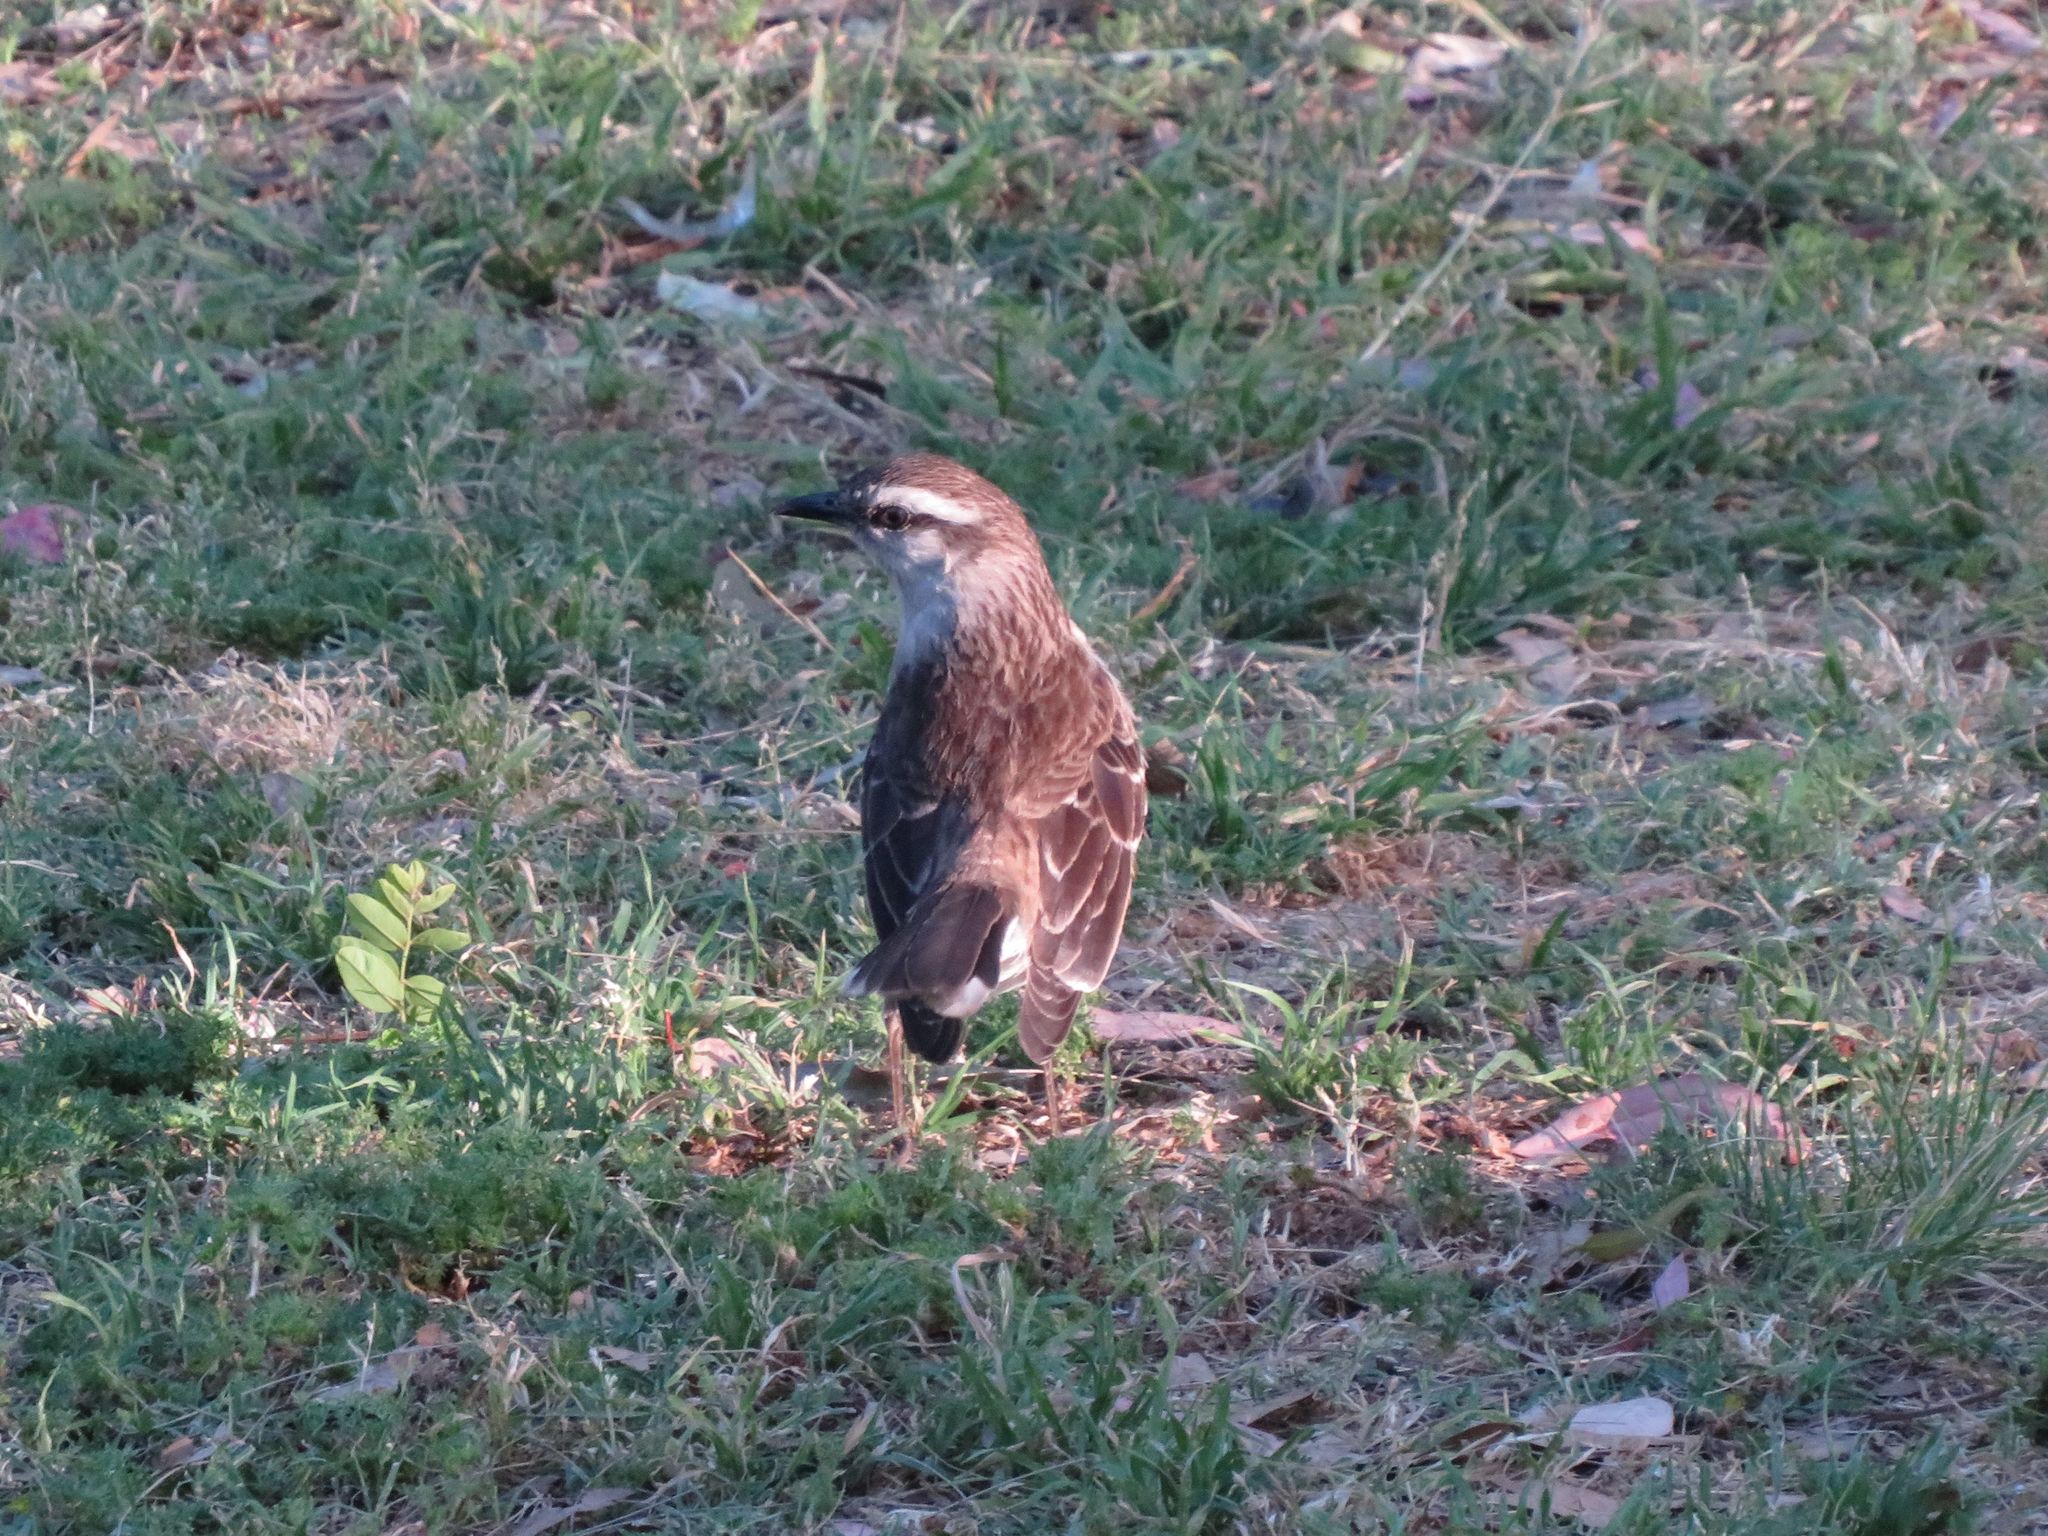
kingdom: Animalia
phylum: Chordata
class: Aves
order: Passeriformes
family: Mimidae
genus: Mimus
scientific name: Mimus saturninus
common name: Chalk-browed mockingbird
